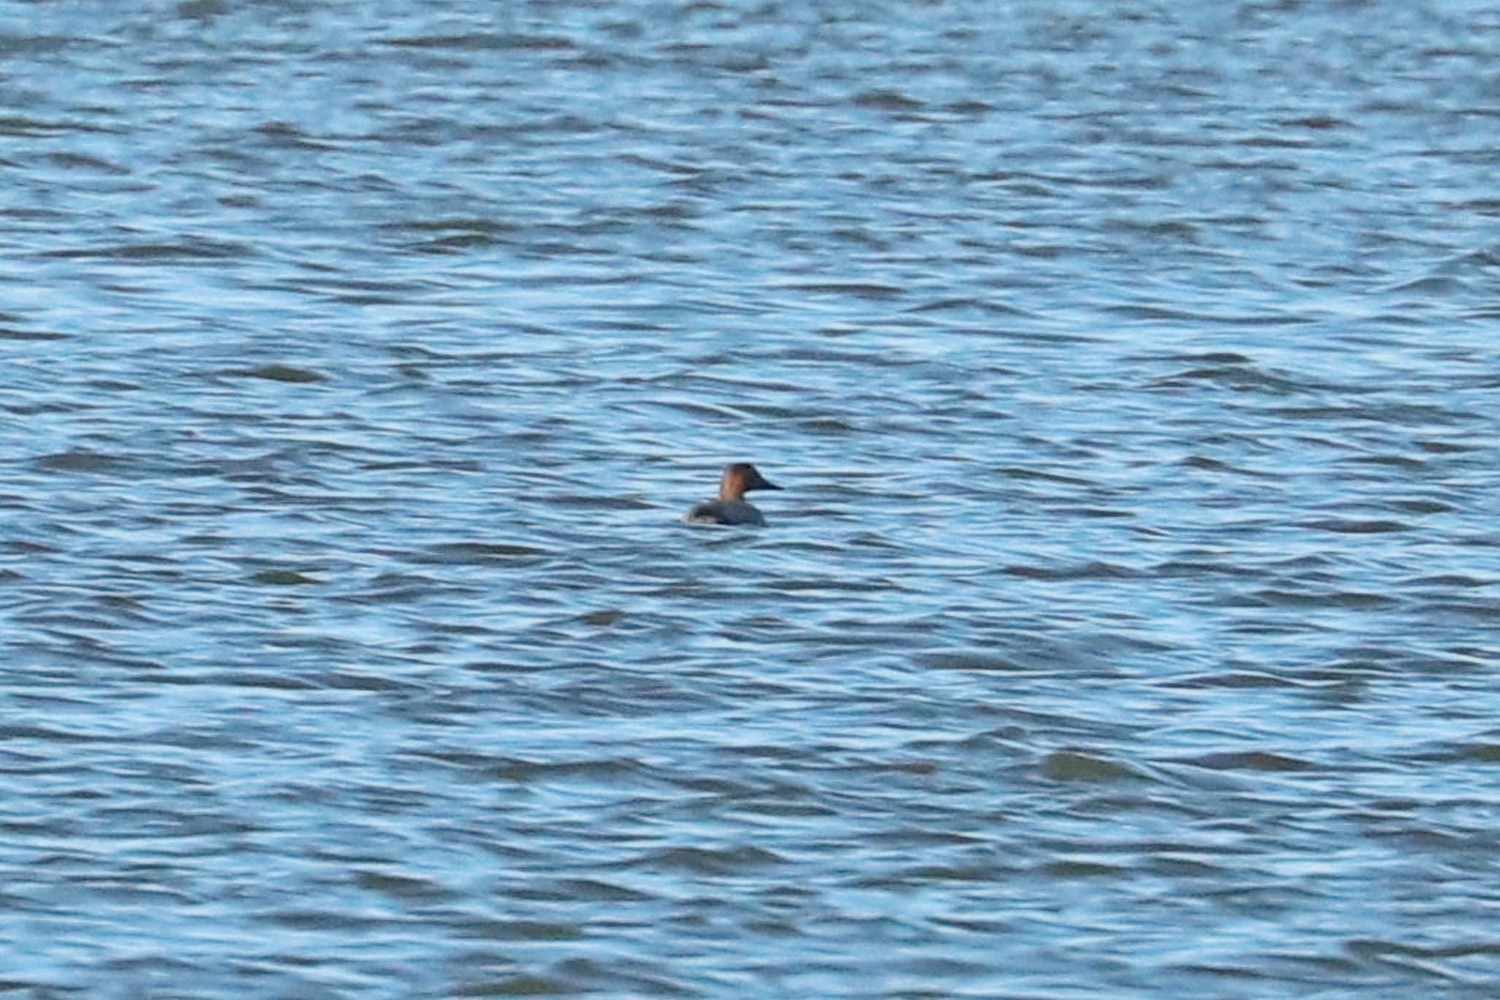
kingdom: Animalia
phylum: Chordata
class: Aves
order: Anseriformes
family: Anatidae
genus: Aythya
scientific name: Aythya ferina
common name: Common pochard
